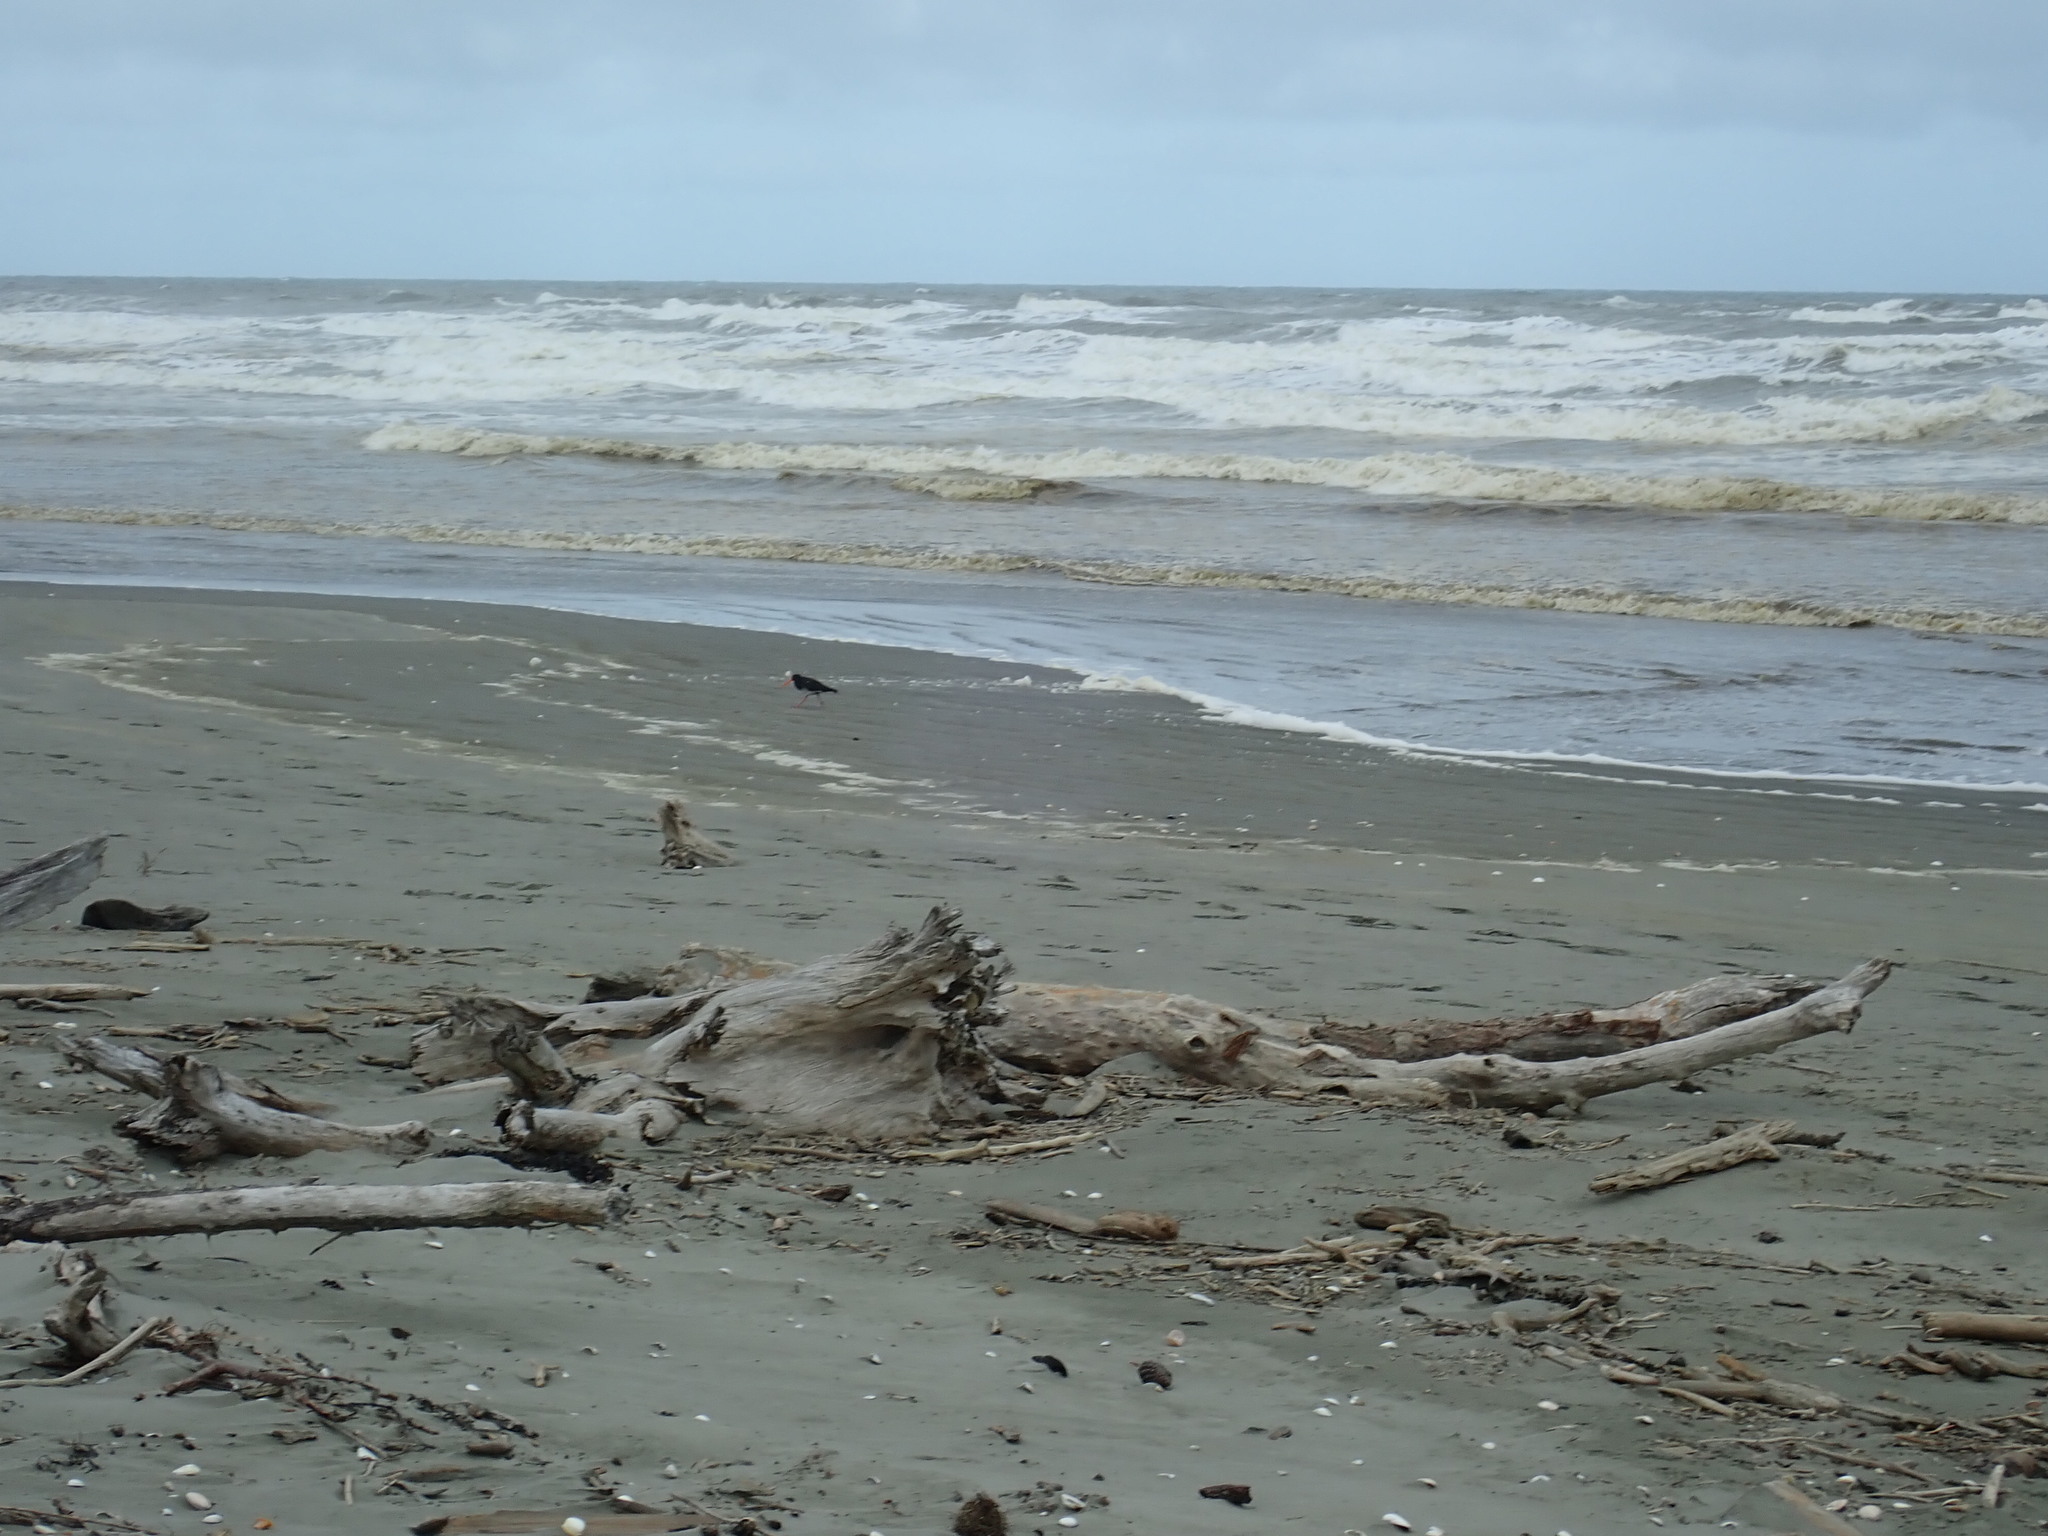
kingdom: Animalia
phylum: Chordata
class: Aves
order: Charadriiformes
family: Haematopodidae
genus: Haematopus
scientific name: Haematopus unicolor
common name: Variable oystercatcher
